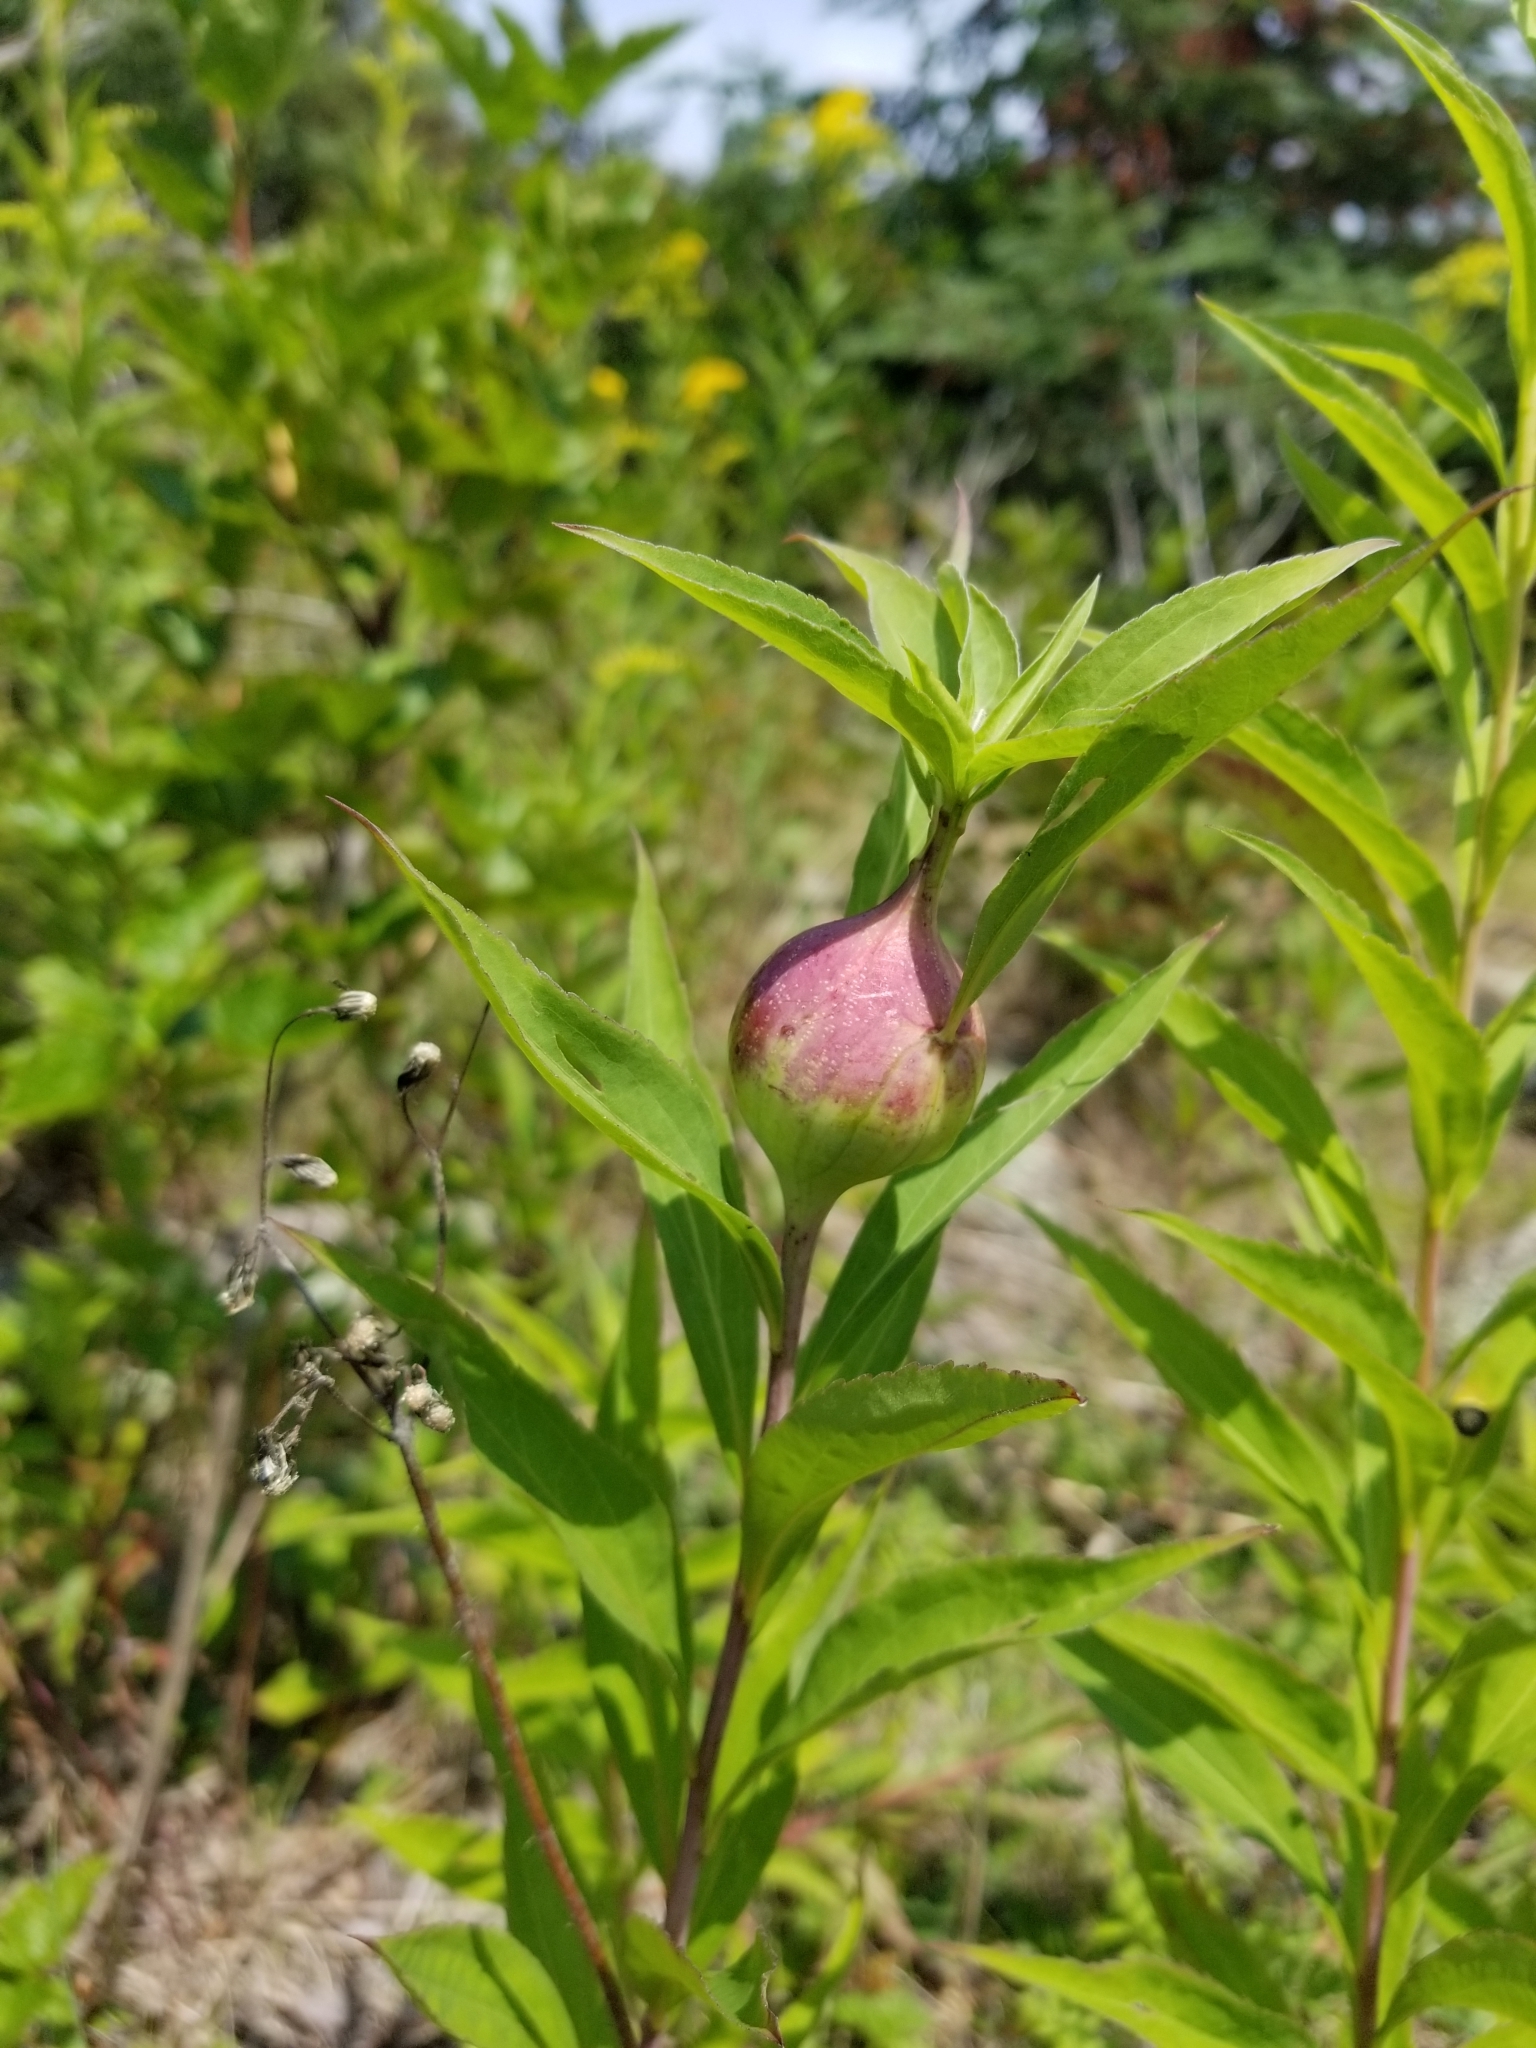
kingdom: Animalia
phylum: Arthropoda
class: Insecta
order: Diptera
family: Tephritidae
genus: Eurosta
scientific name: Eurosta solidaginis
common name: Goldenrod gall fly
